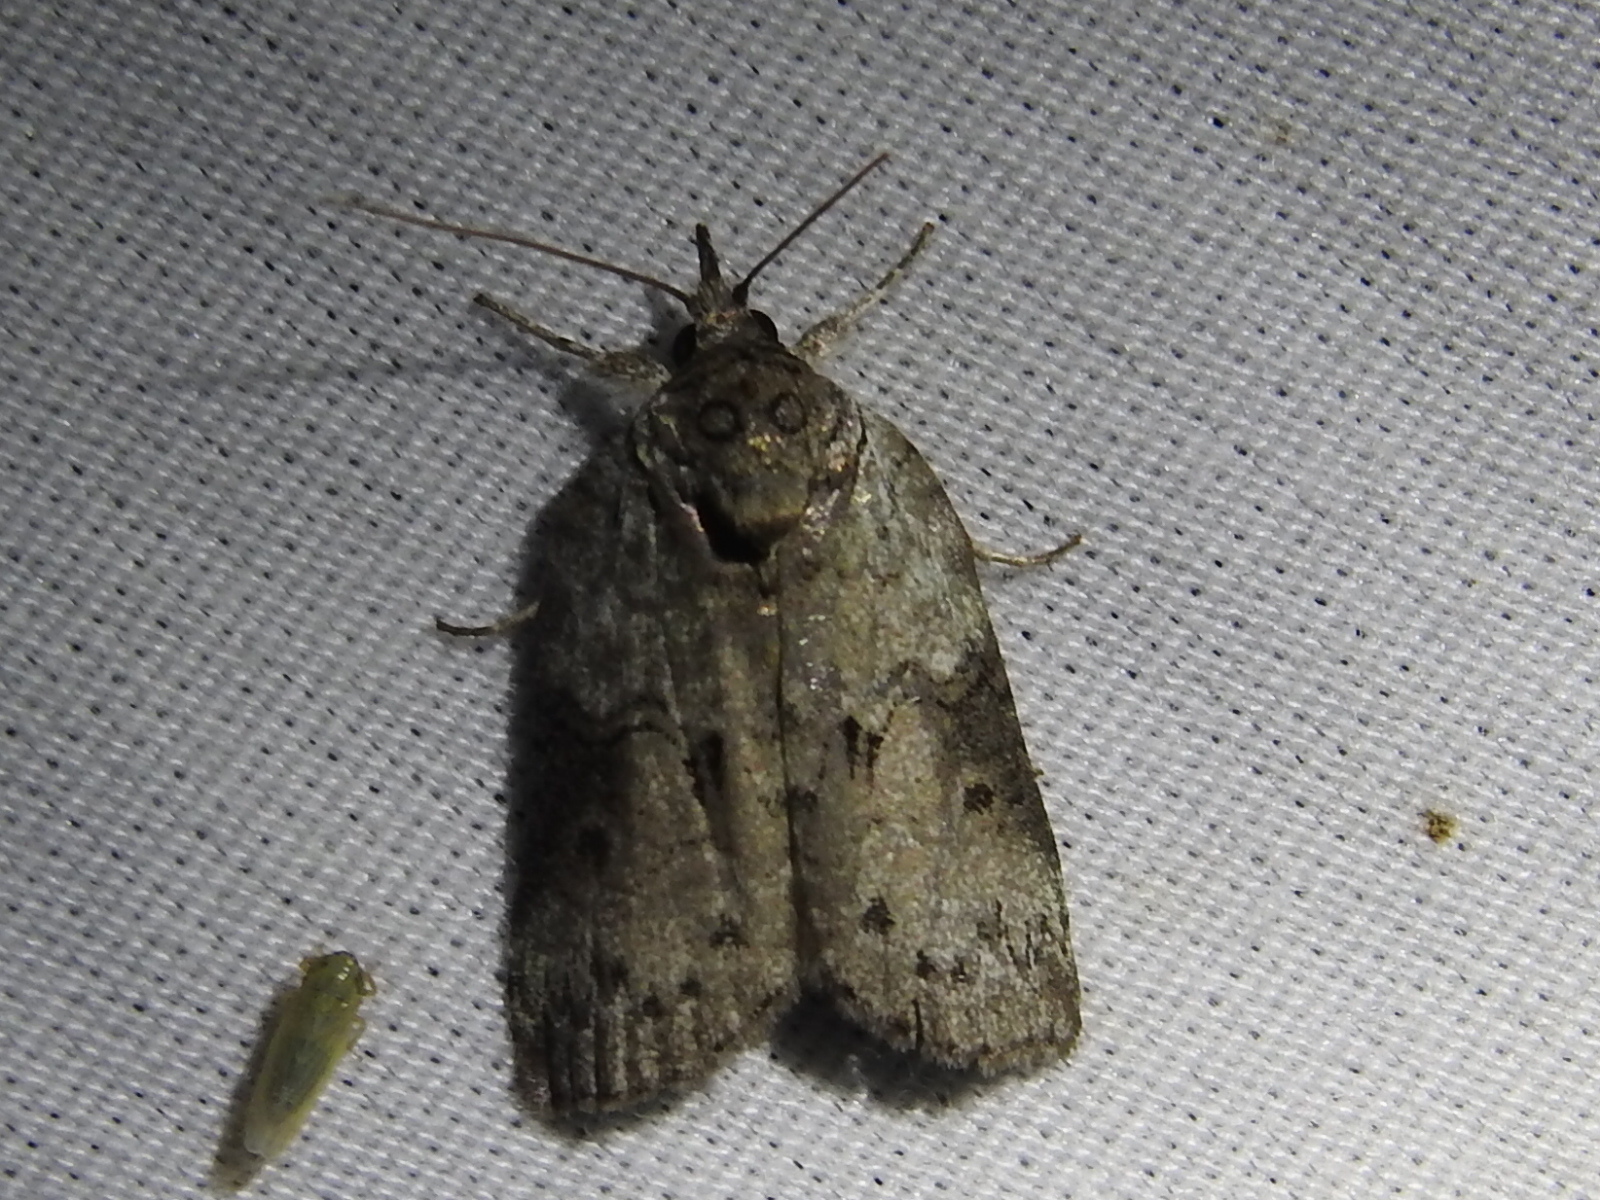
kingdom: Animalia
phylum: Arthropoda
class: Insecta
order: Lepidoptera
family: Nolidae
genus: Nycteola
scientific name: Nycteola metaspilella
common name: Forgotten frigid owlet
